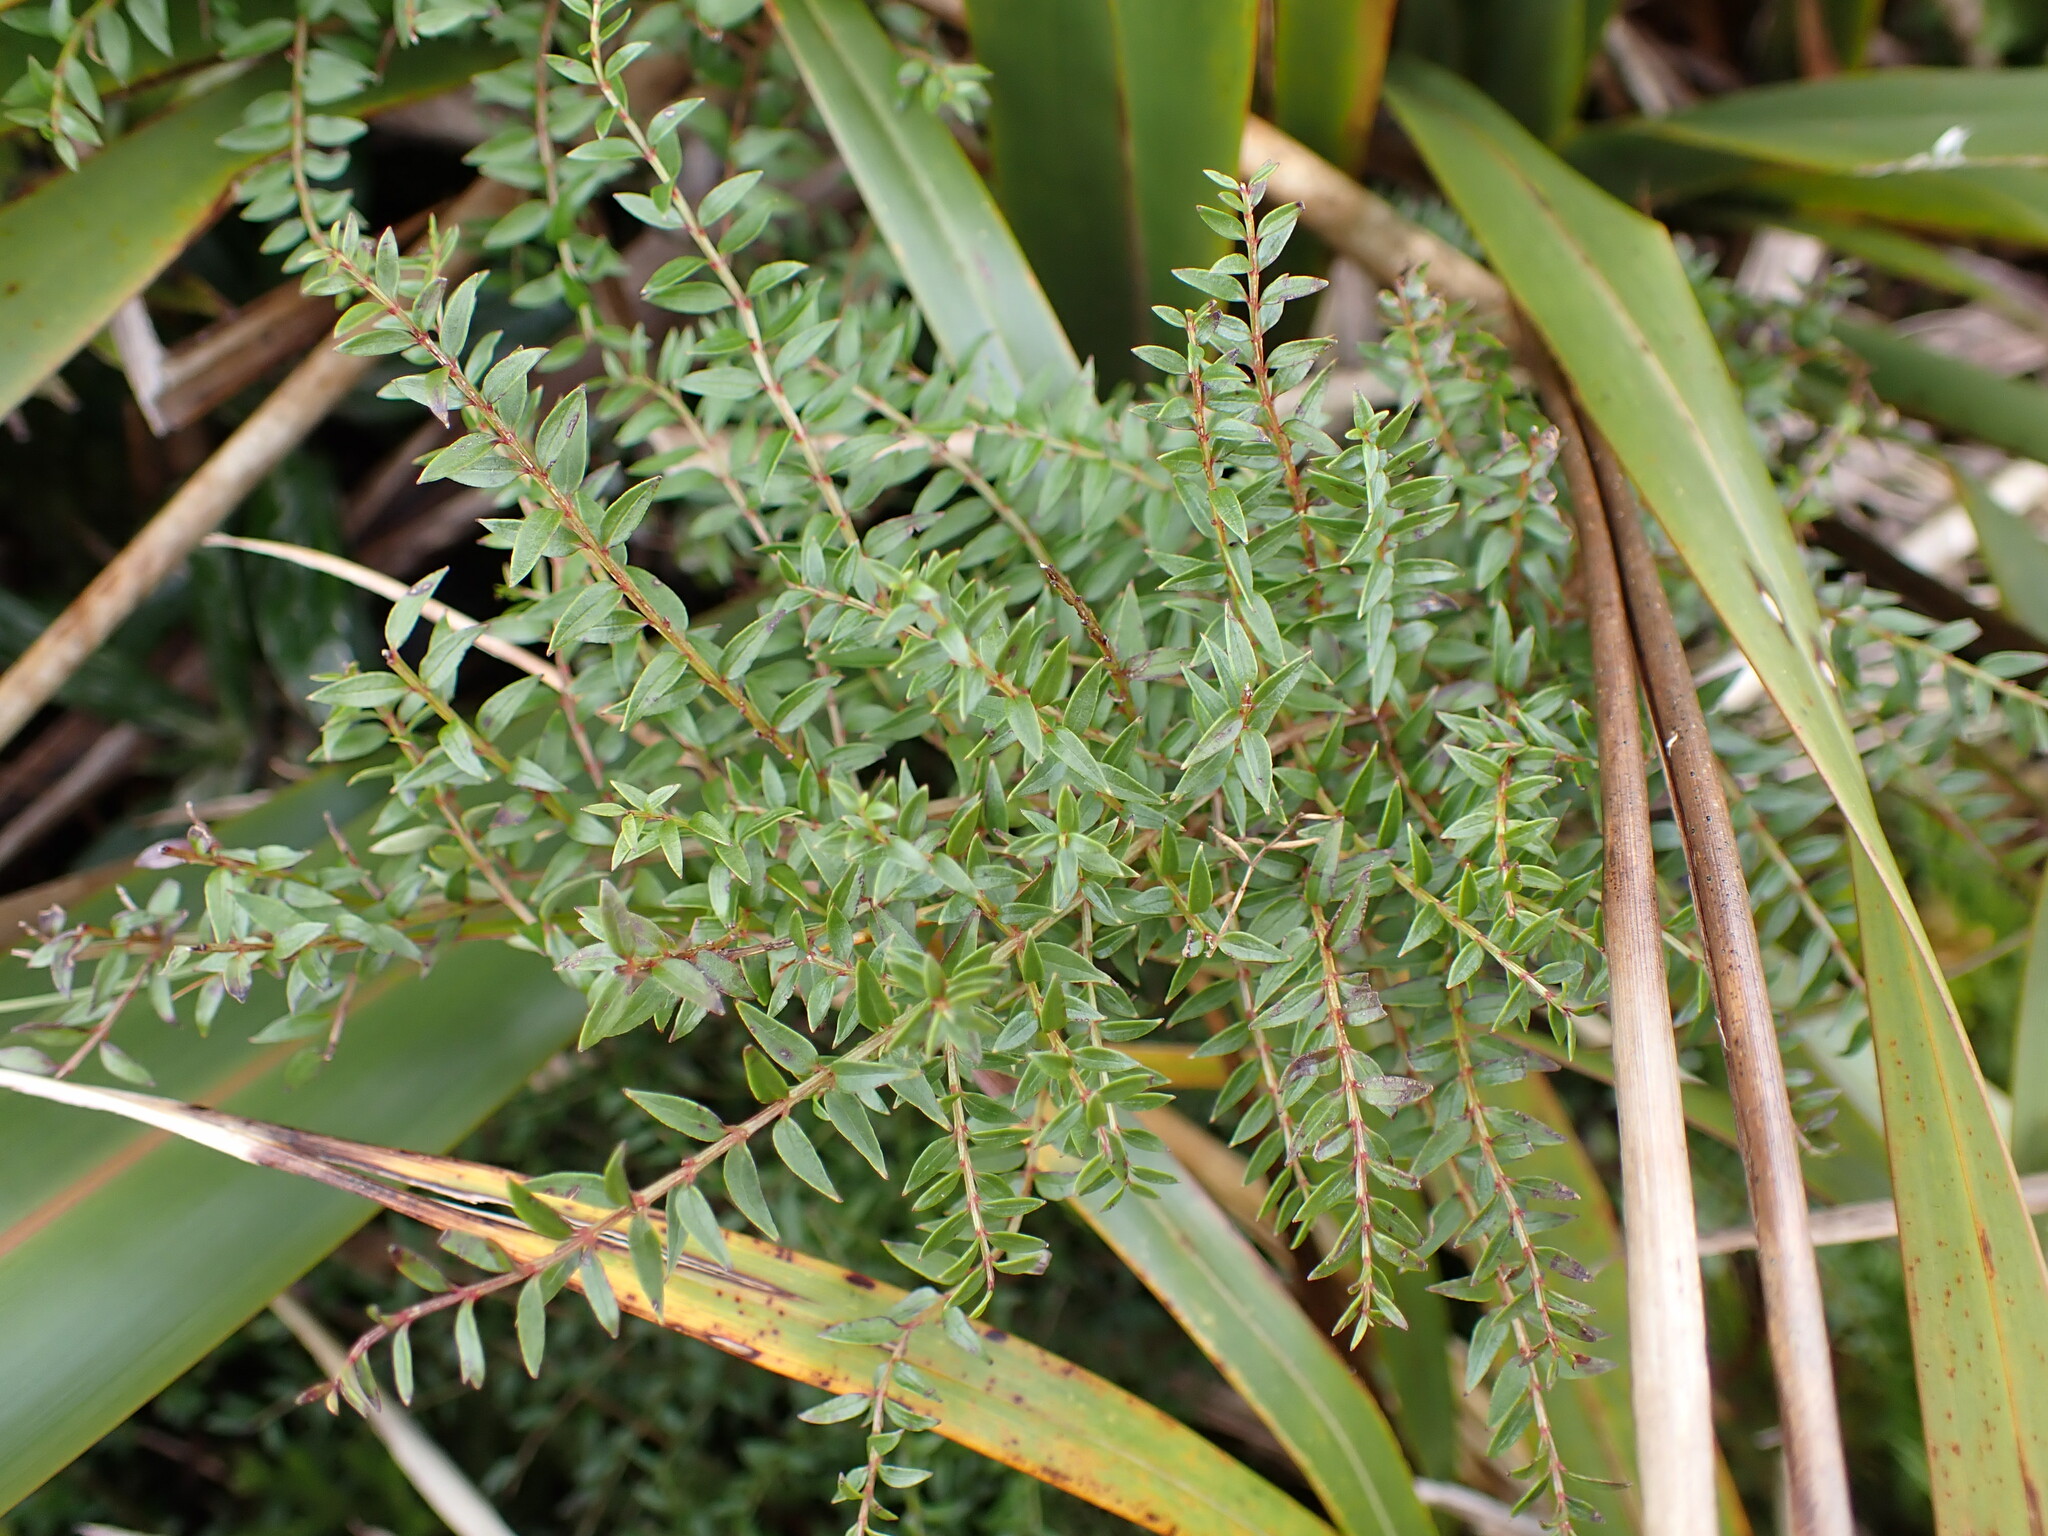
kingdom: Plantae
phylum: Tracheophyta
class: Magnoliopsida
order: Cucurbitales
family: Coriariaceae
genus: Coriaria
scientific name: Coriaria plumosa
